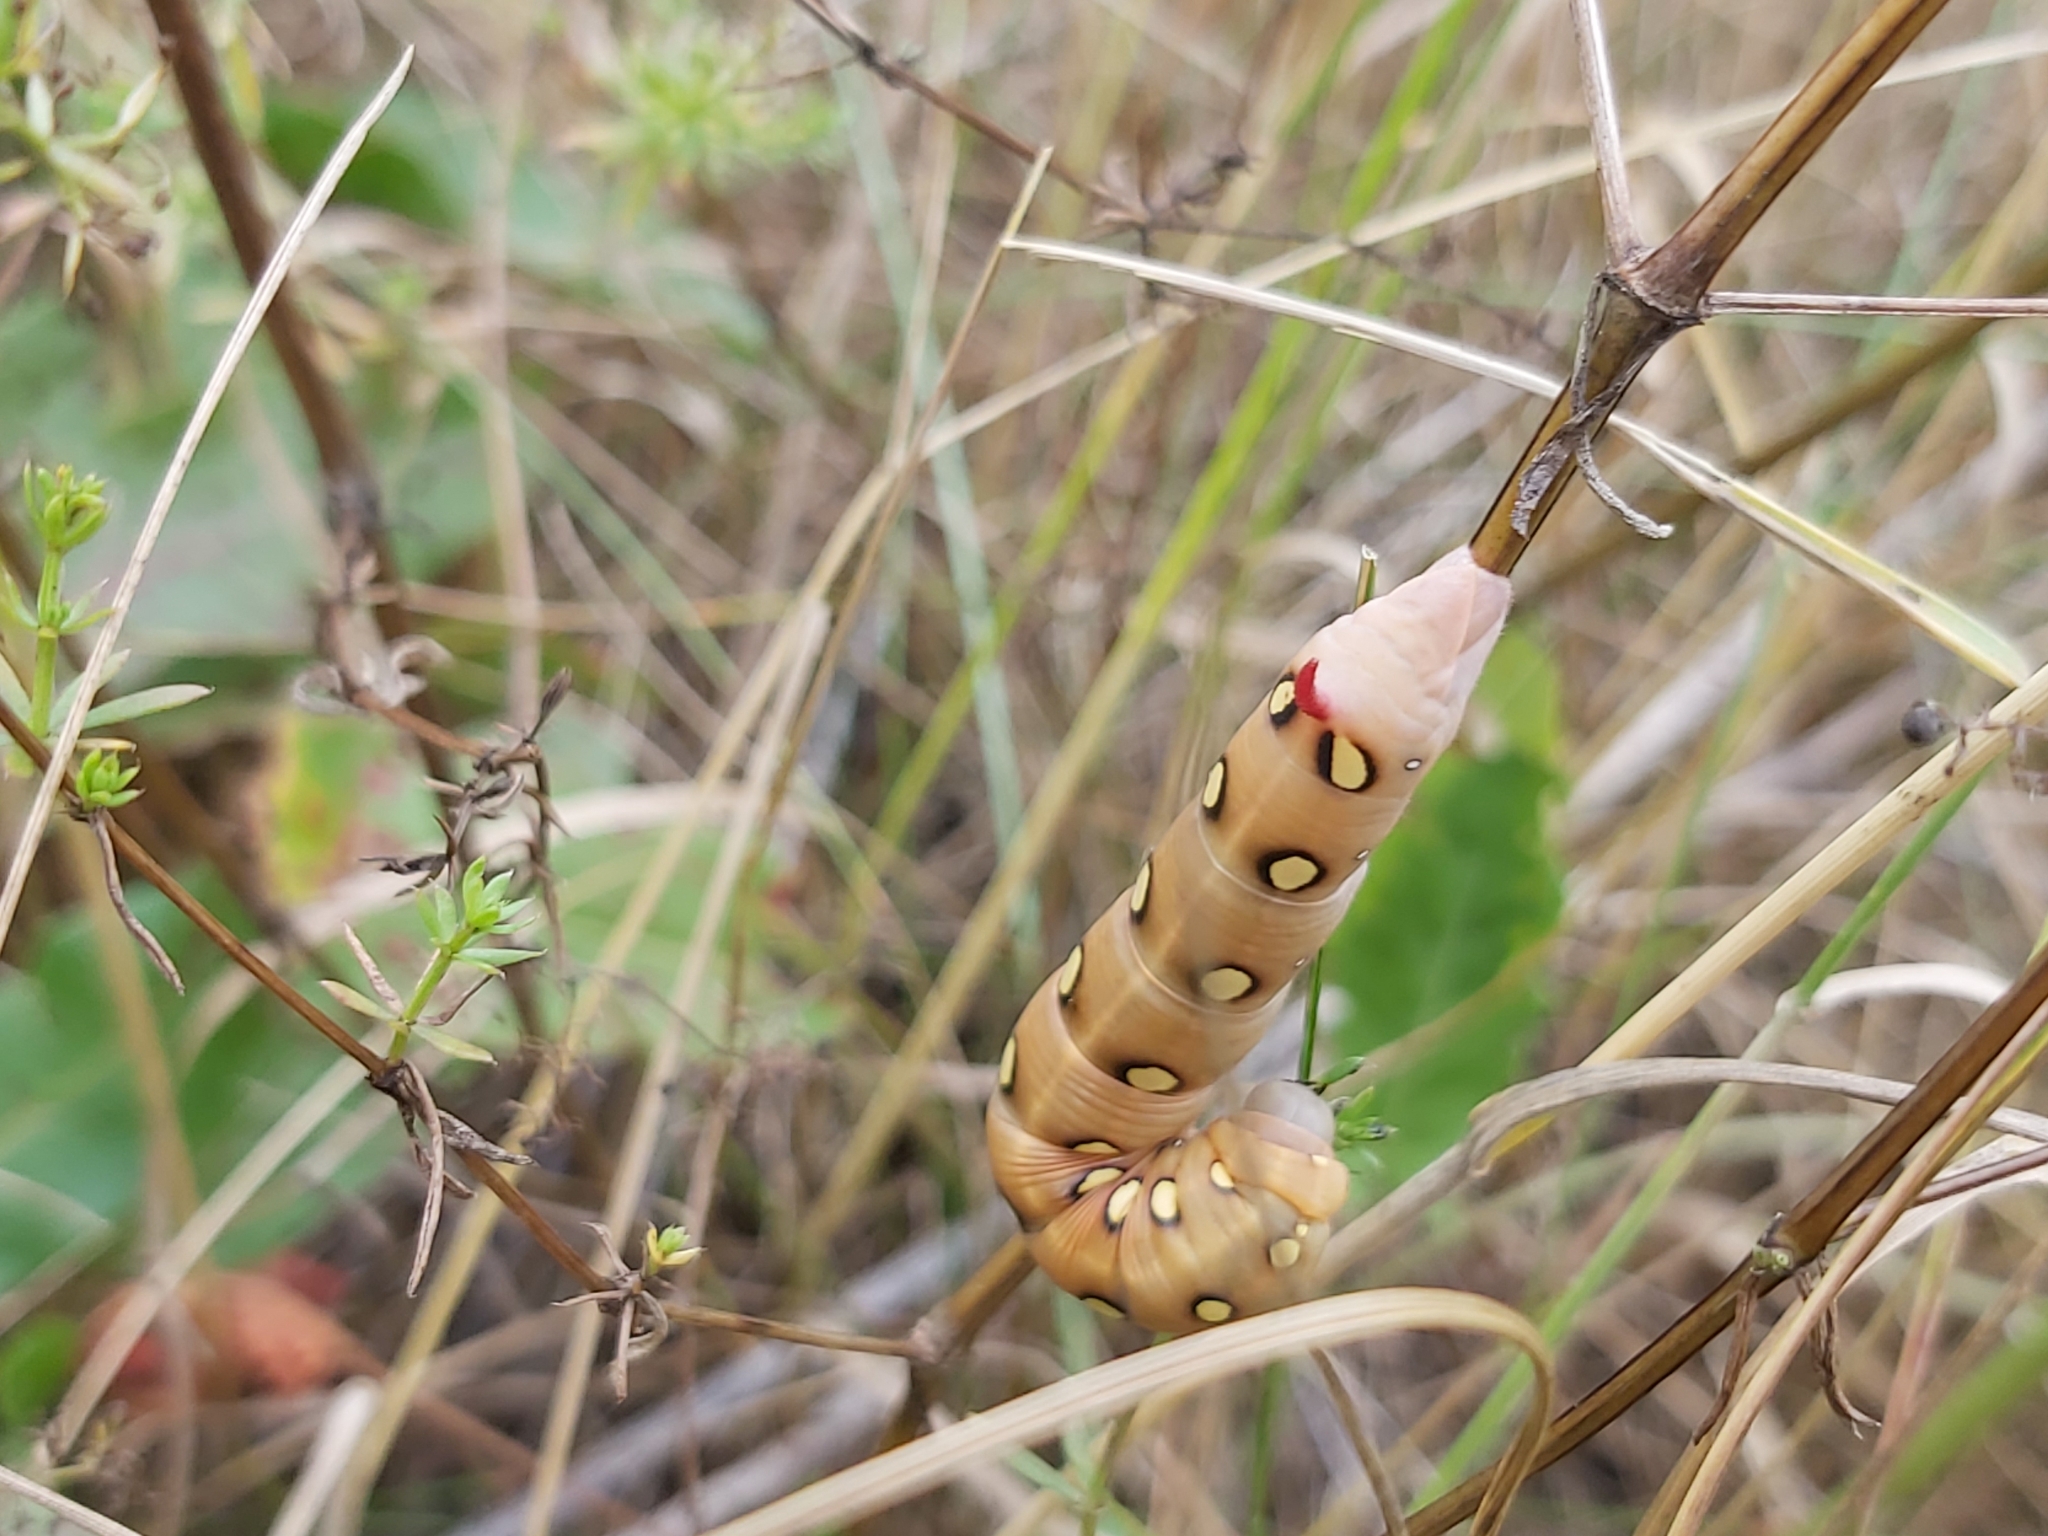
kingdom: Animalia
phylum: Arthropoda
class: Insecta
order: Lepidoptera
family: Sphingidae
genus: Hyles
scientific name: Hyles gallii
